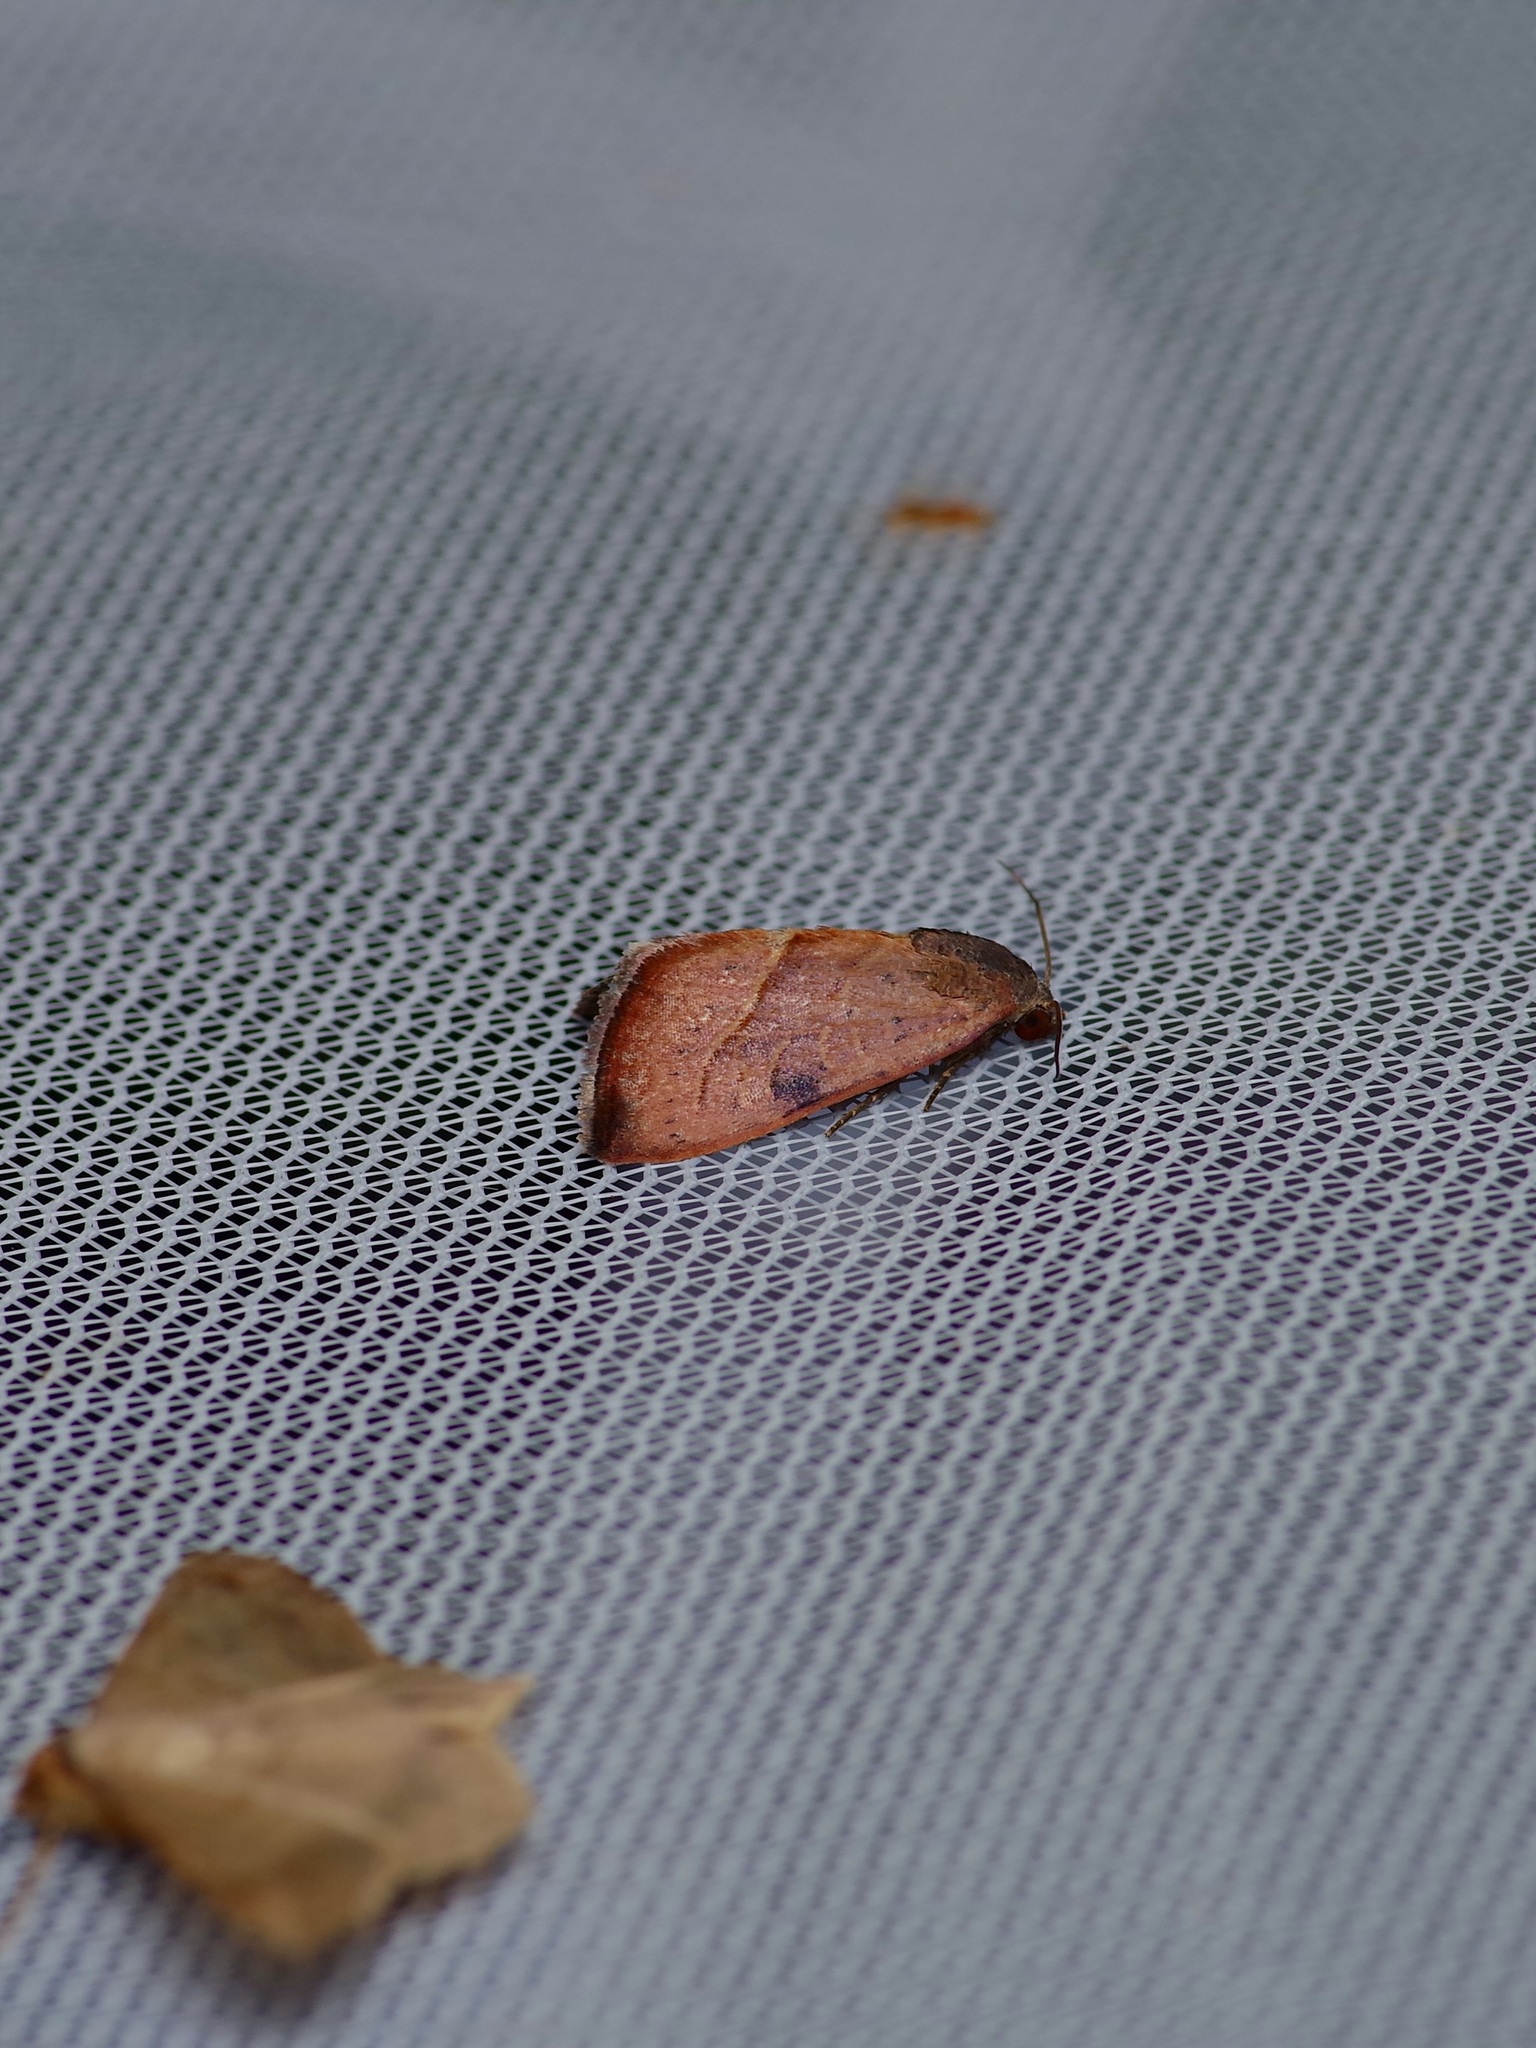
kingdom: Animalia
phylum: Arthropoda
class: Insecta
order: Lepidoptera
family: Noctuidae
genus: Galgula
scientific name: Galgula partita
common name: Wedgeling
